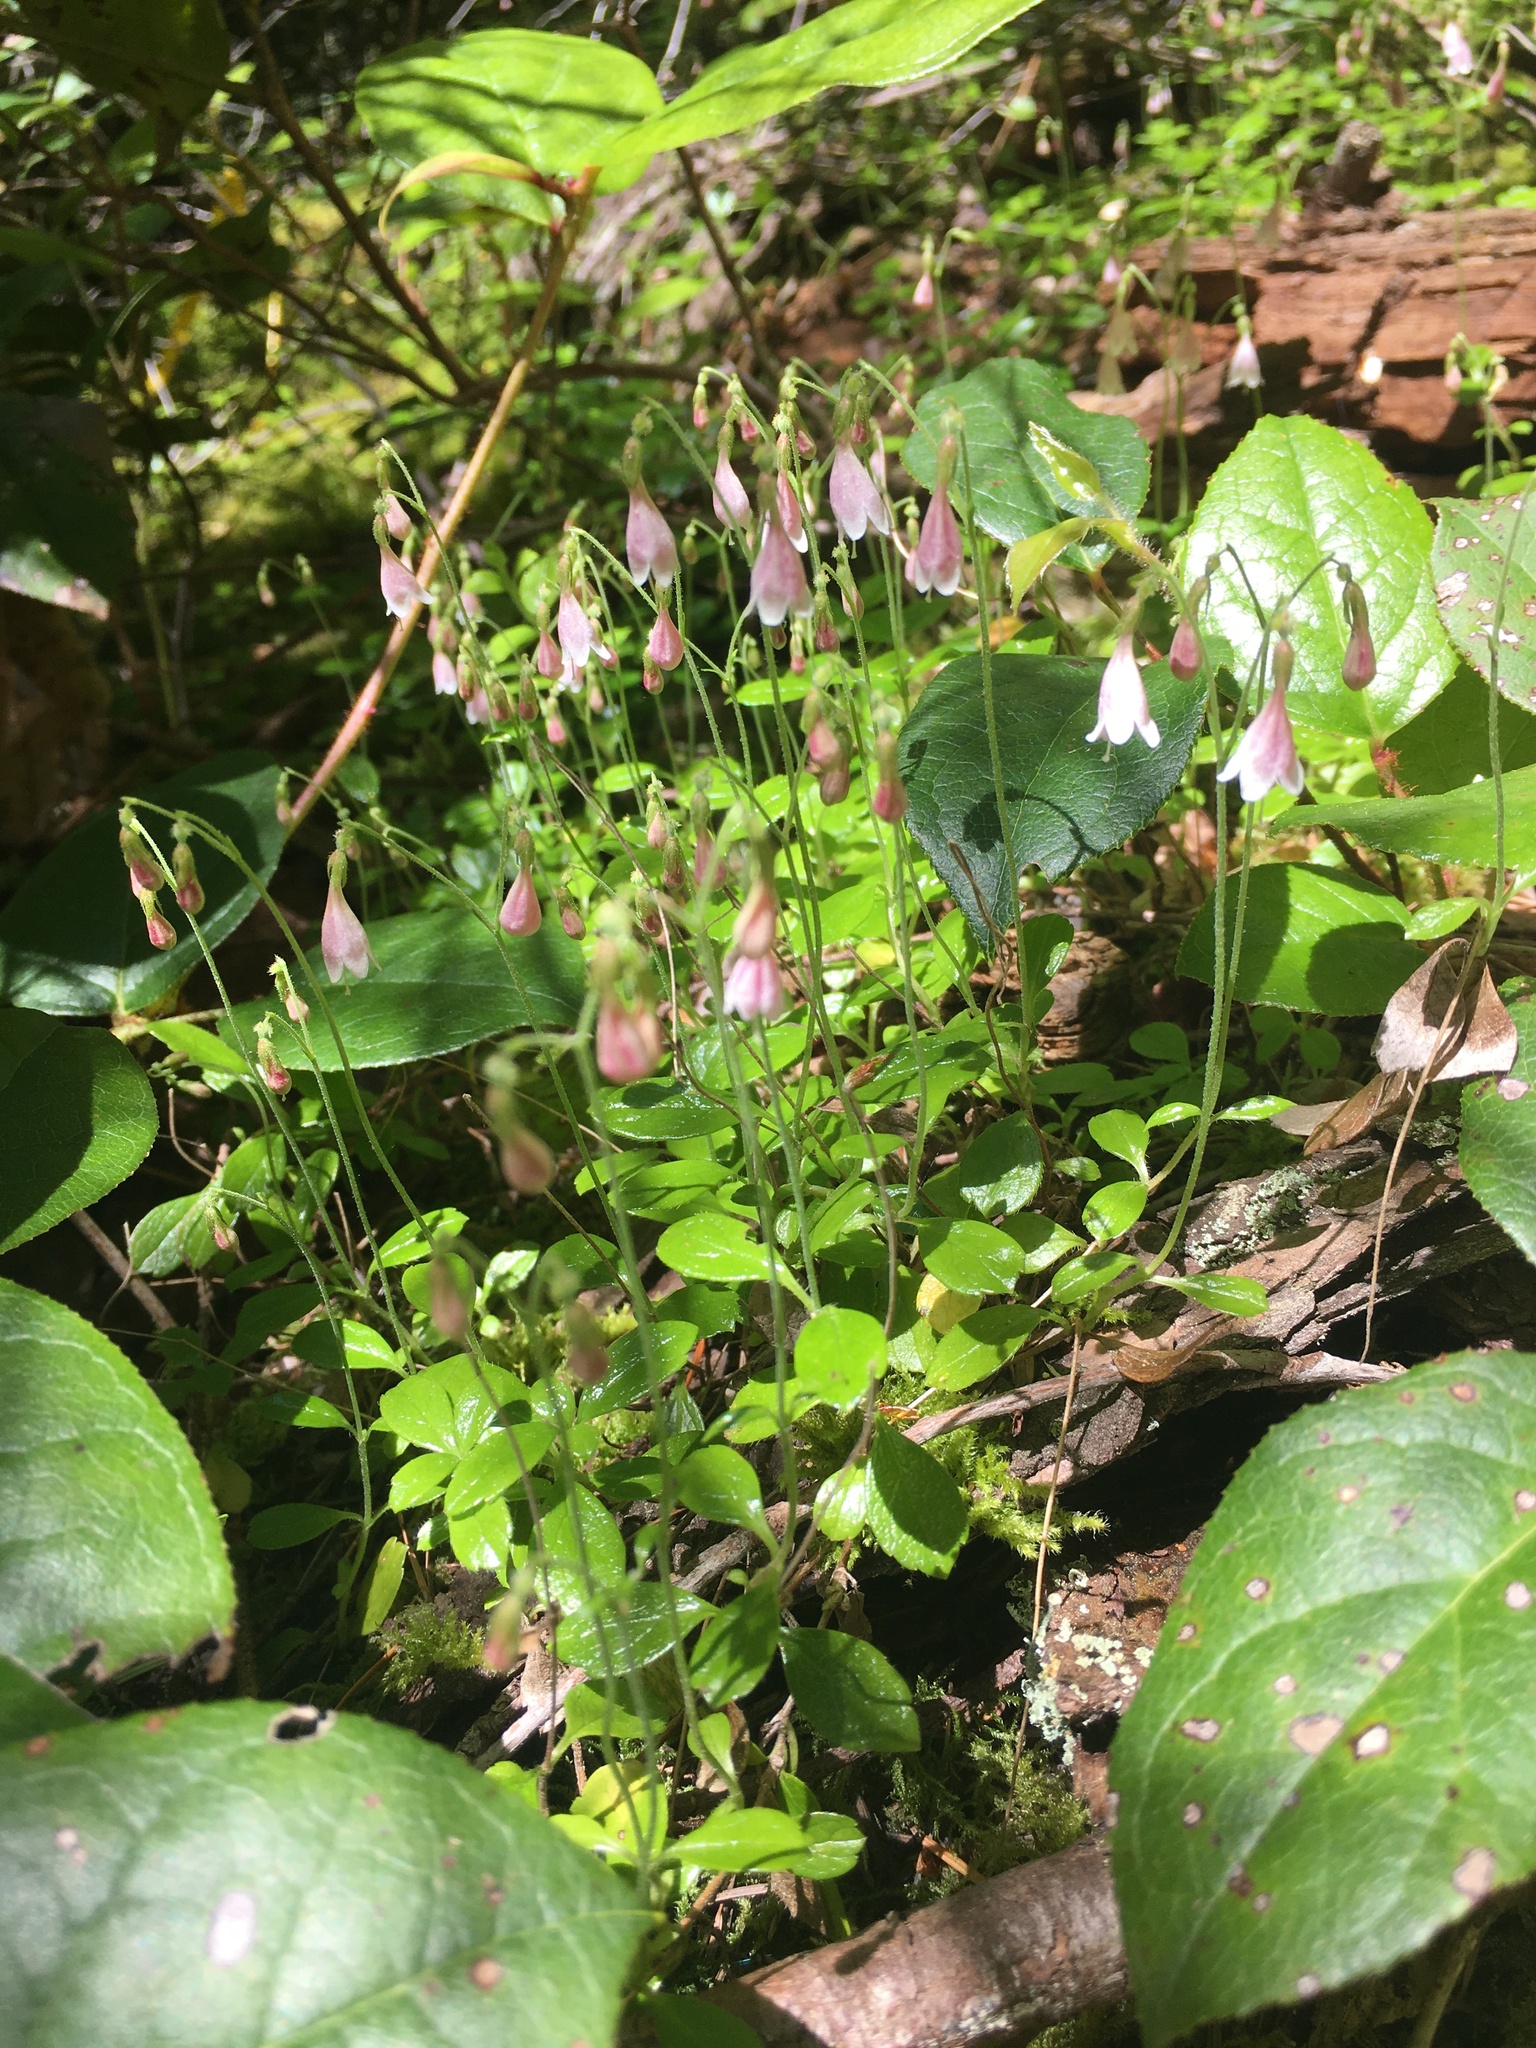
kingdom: Plantae
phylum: Tracheophyta
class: Magnoliopsida
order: Dipsacales
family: Caprifoliaceae
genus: Linnaea
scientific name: Linnaea borealis
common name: Twinflower
